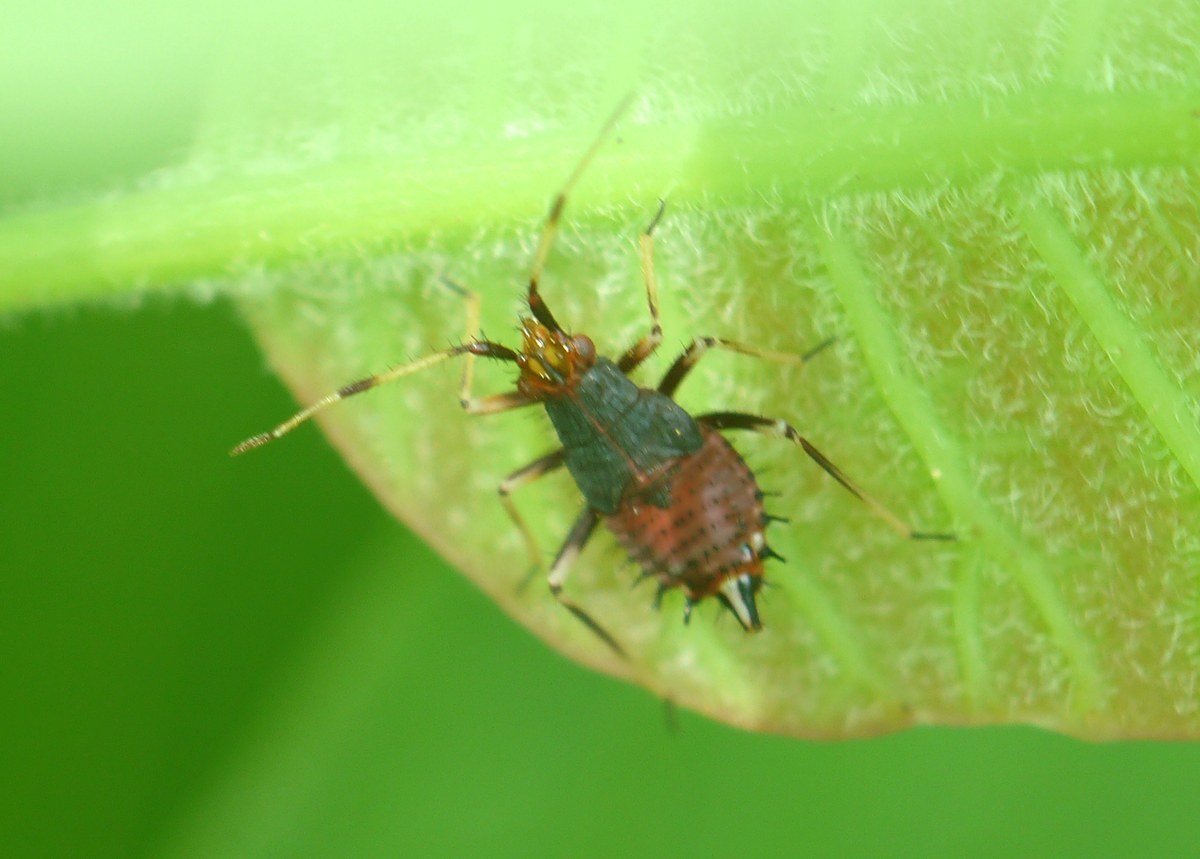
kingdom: Animalia
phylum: Arthropoda
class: Insecta
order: Hemiptera
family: Miridae
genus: Deraeocoris
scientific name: Deraeocoris ruber
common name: Plant bug
